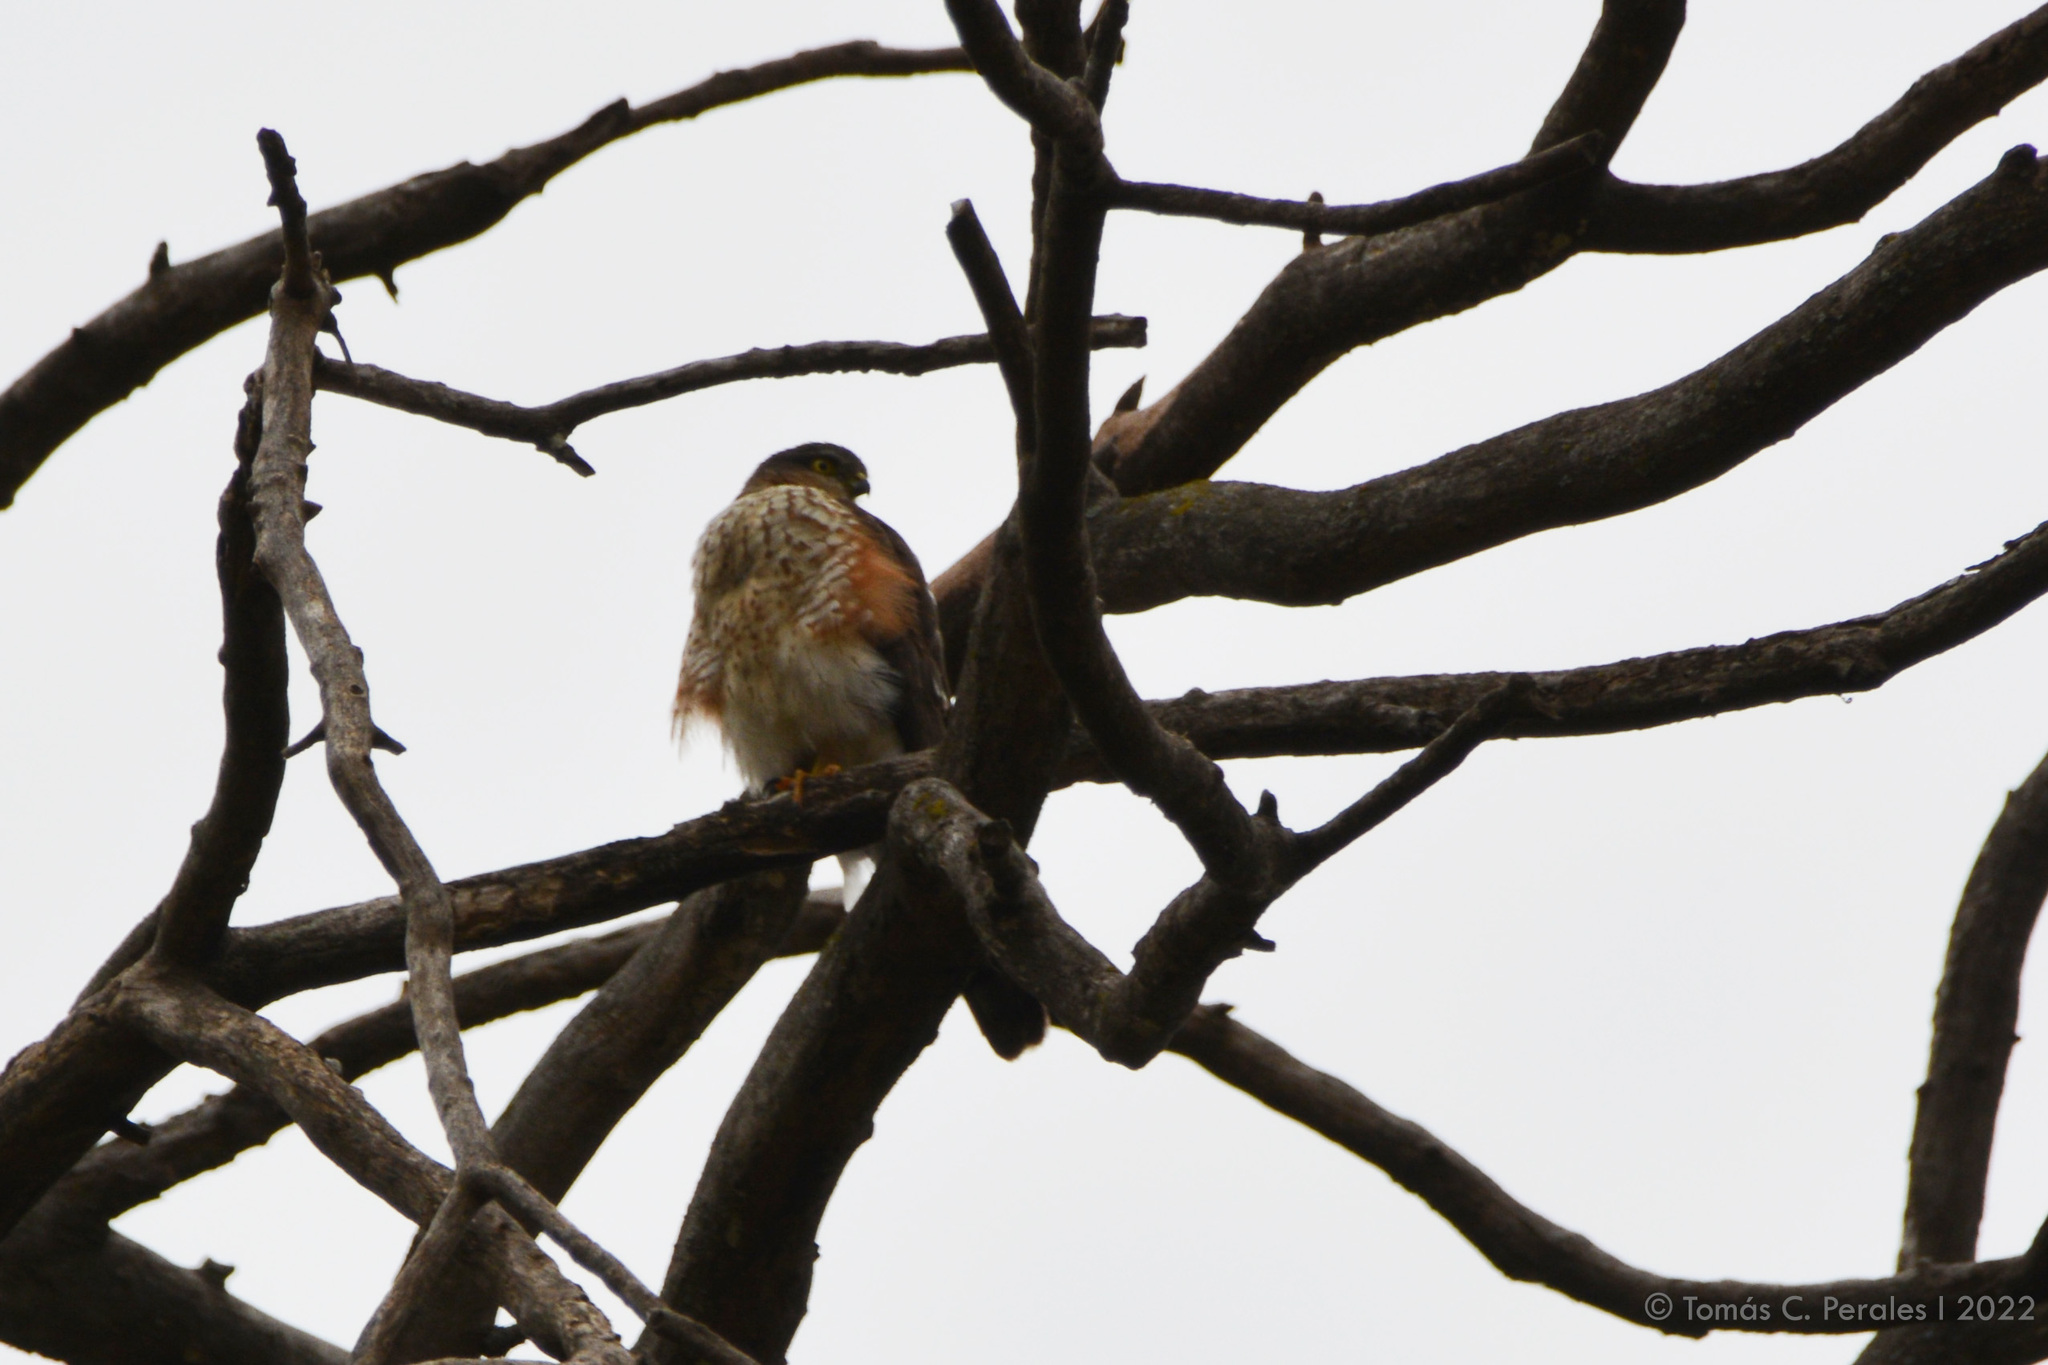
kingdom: Animalia
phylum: Chordata
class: Aves
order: Accipitriformes
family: Accipitridae
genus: Accipiter
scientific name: Accipiter striatus
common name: Sharp-shinned hawk
